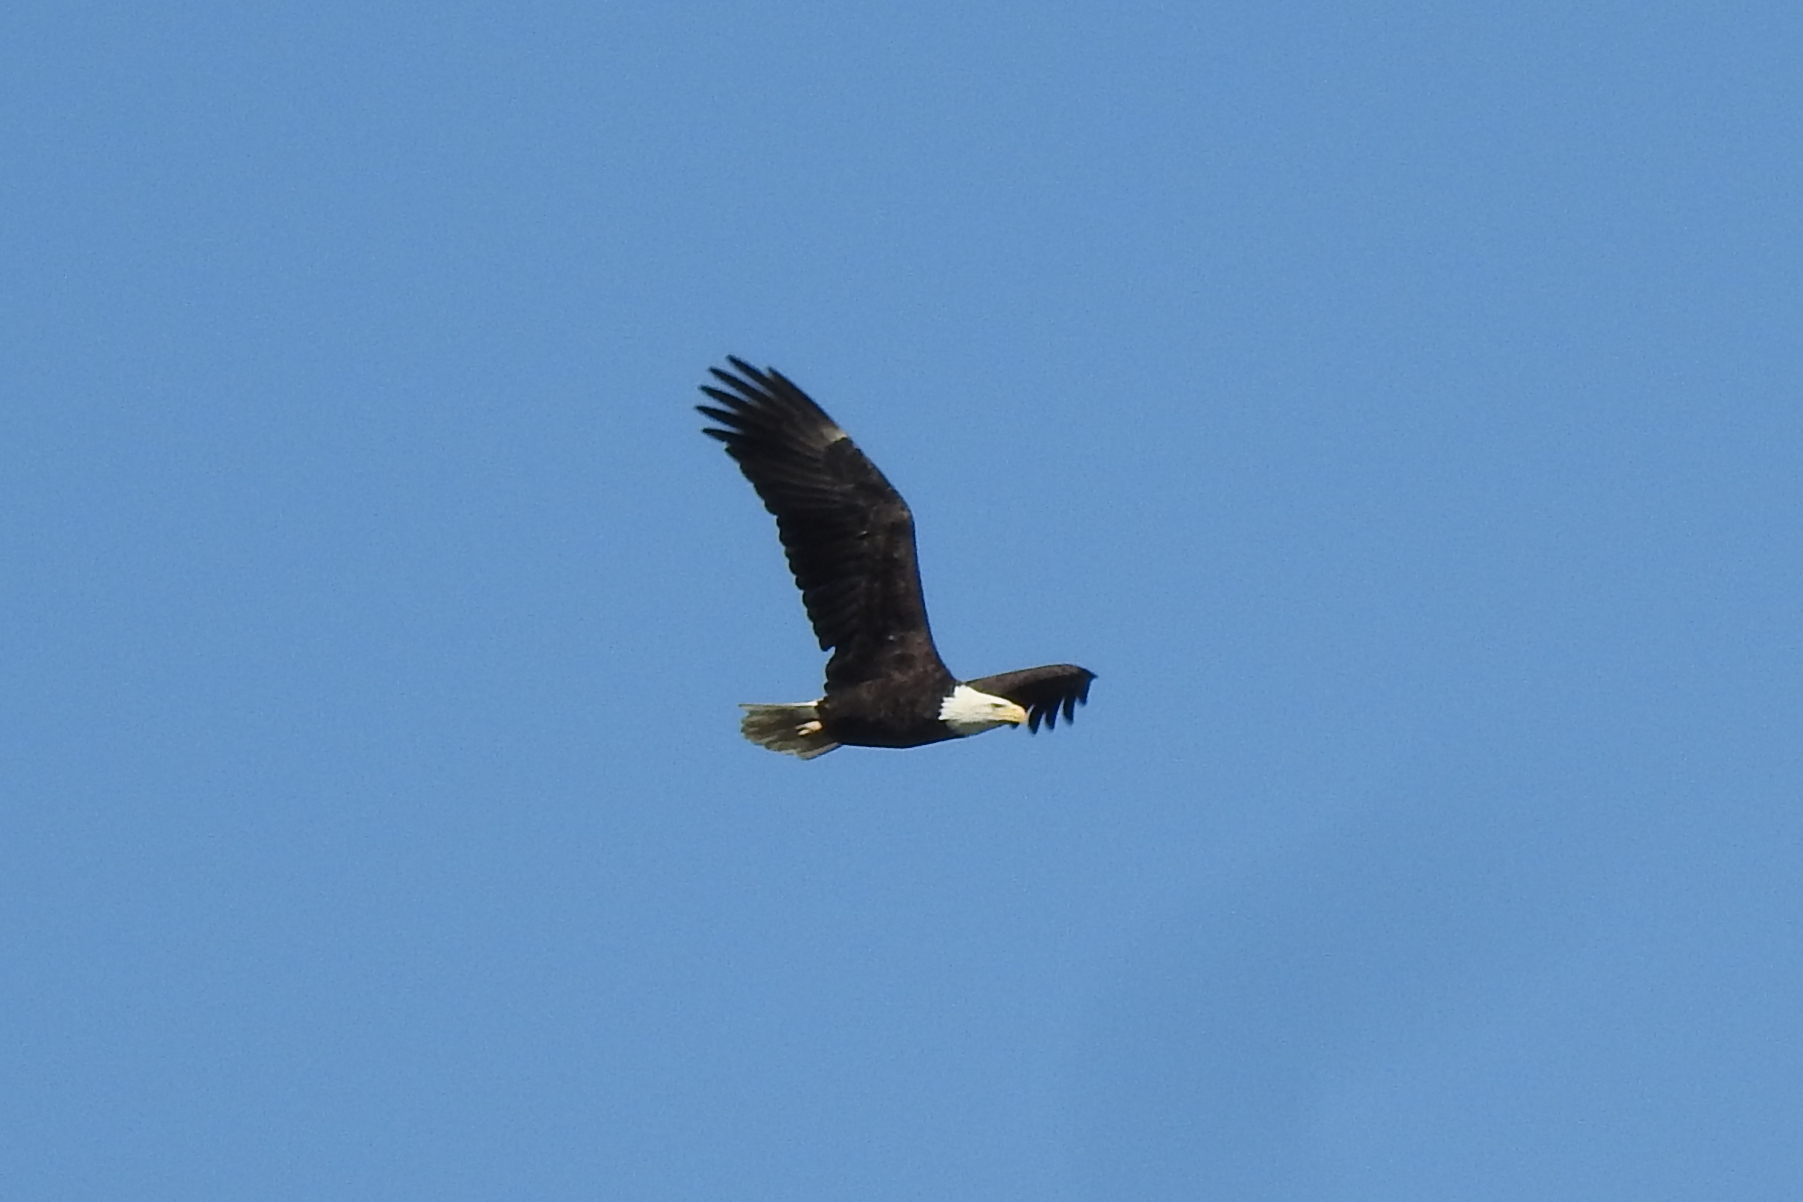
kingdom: Animalia
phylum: Chordata
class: Aves
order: Accipitriformes
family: Accipitridae
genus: Haliaeetus
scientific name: Haliaeetus leucocephalus
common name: Bald eagle
